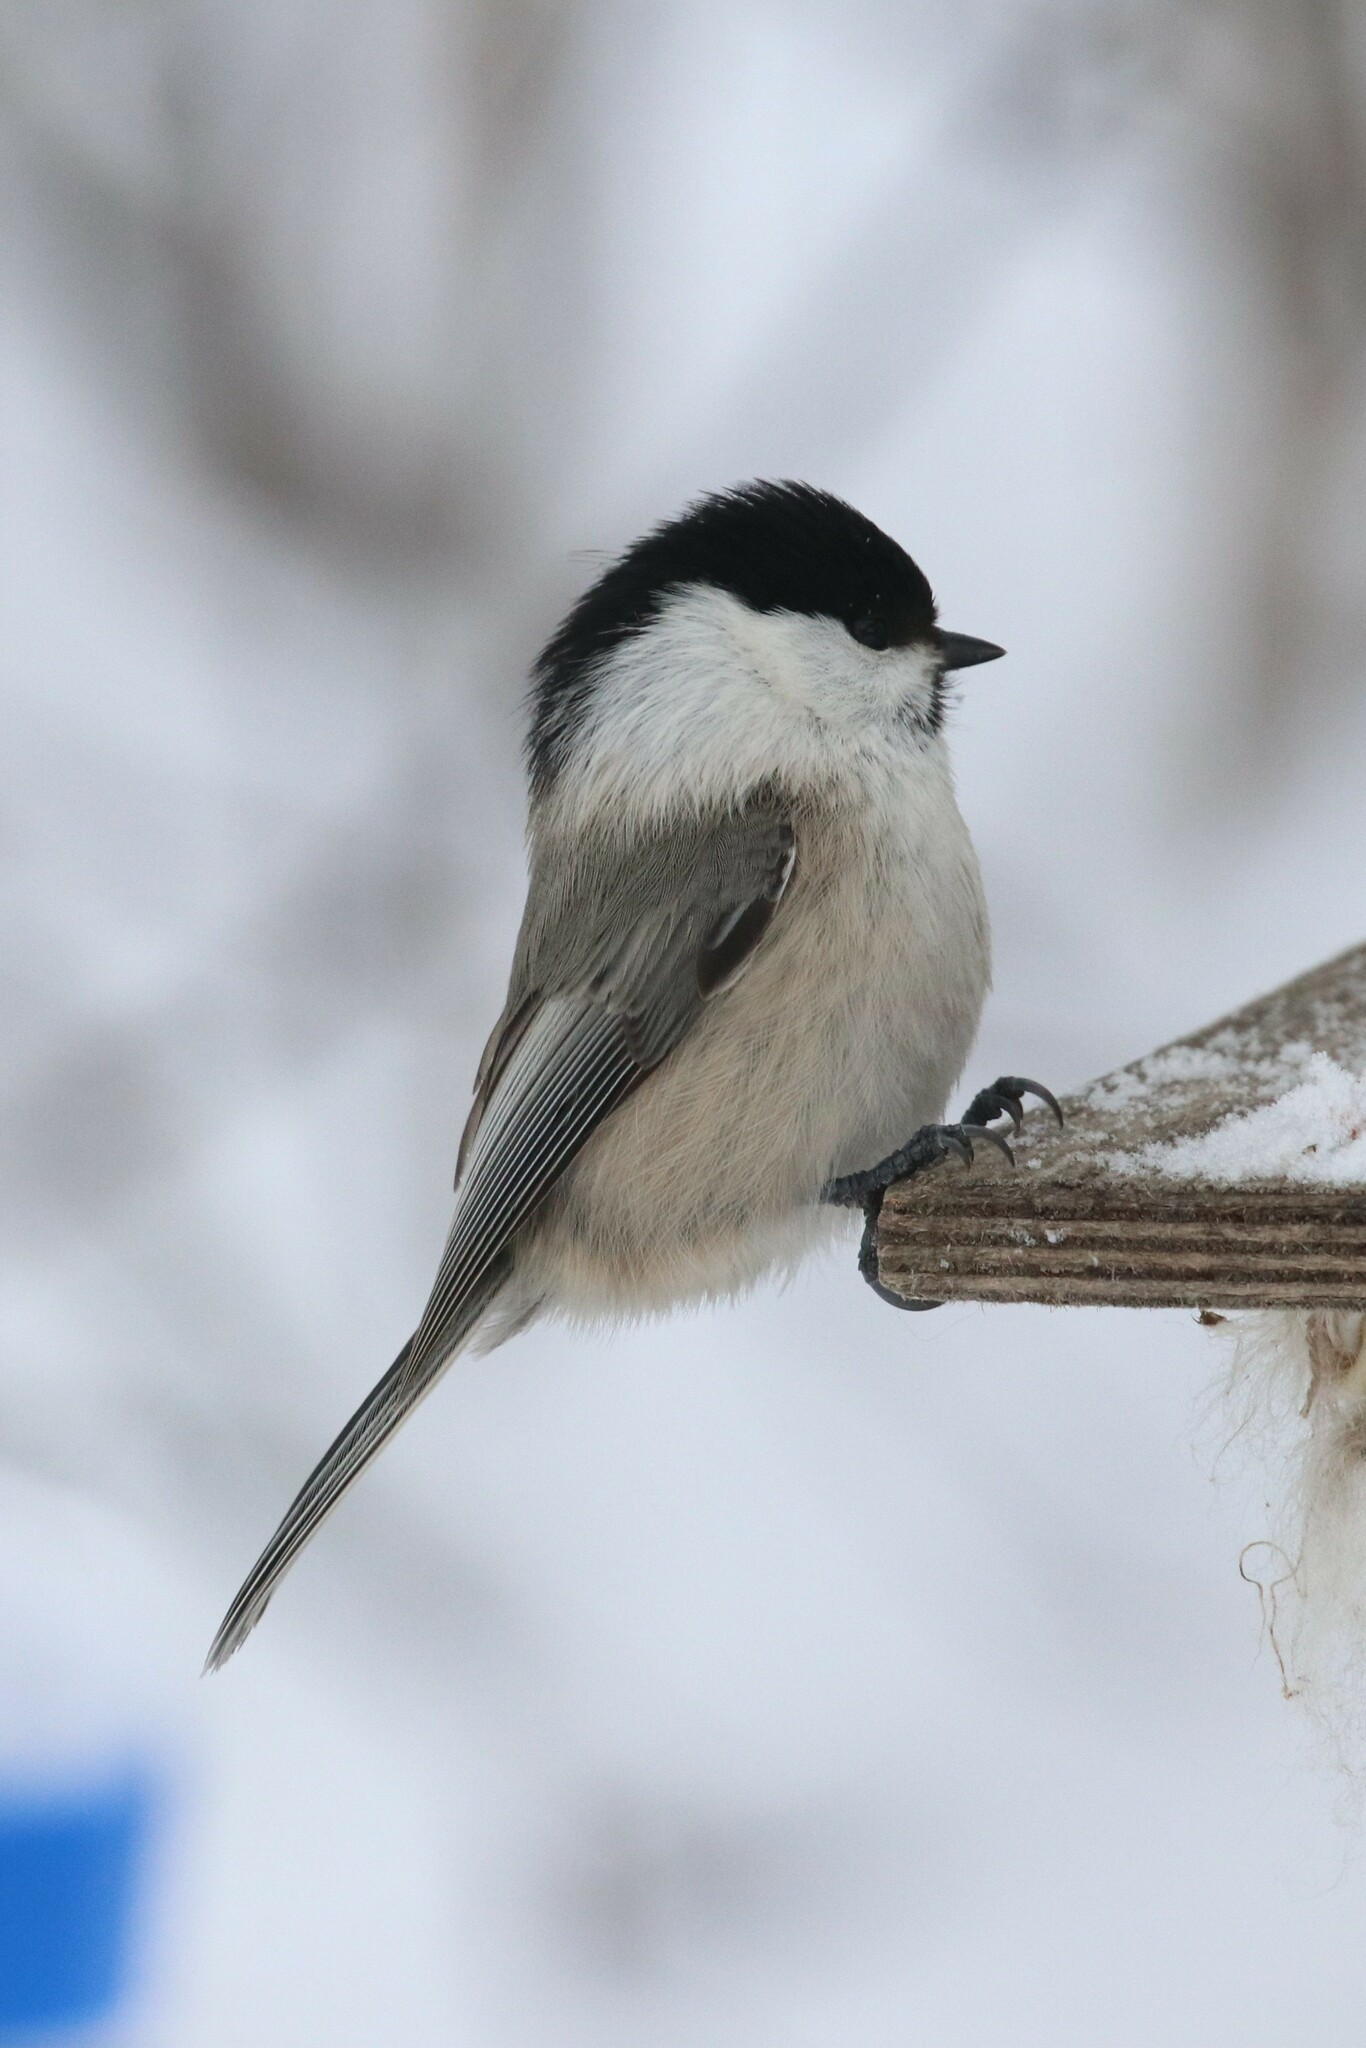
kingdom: Animalia
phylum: Chordata
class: Aves
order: Passeriformes
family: Paridae
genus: Poecile
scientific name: Poecile montanus
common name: Willow tit
